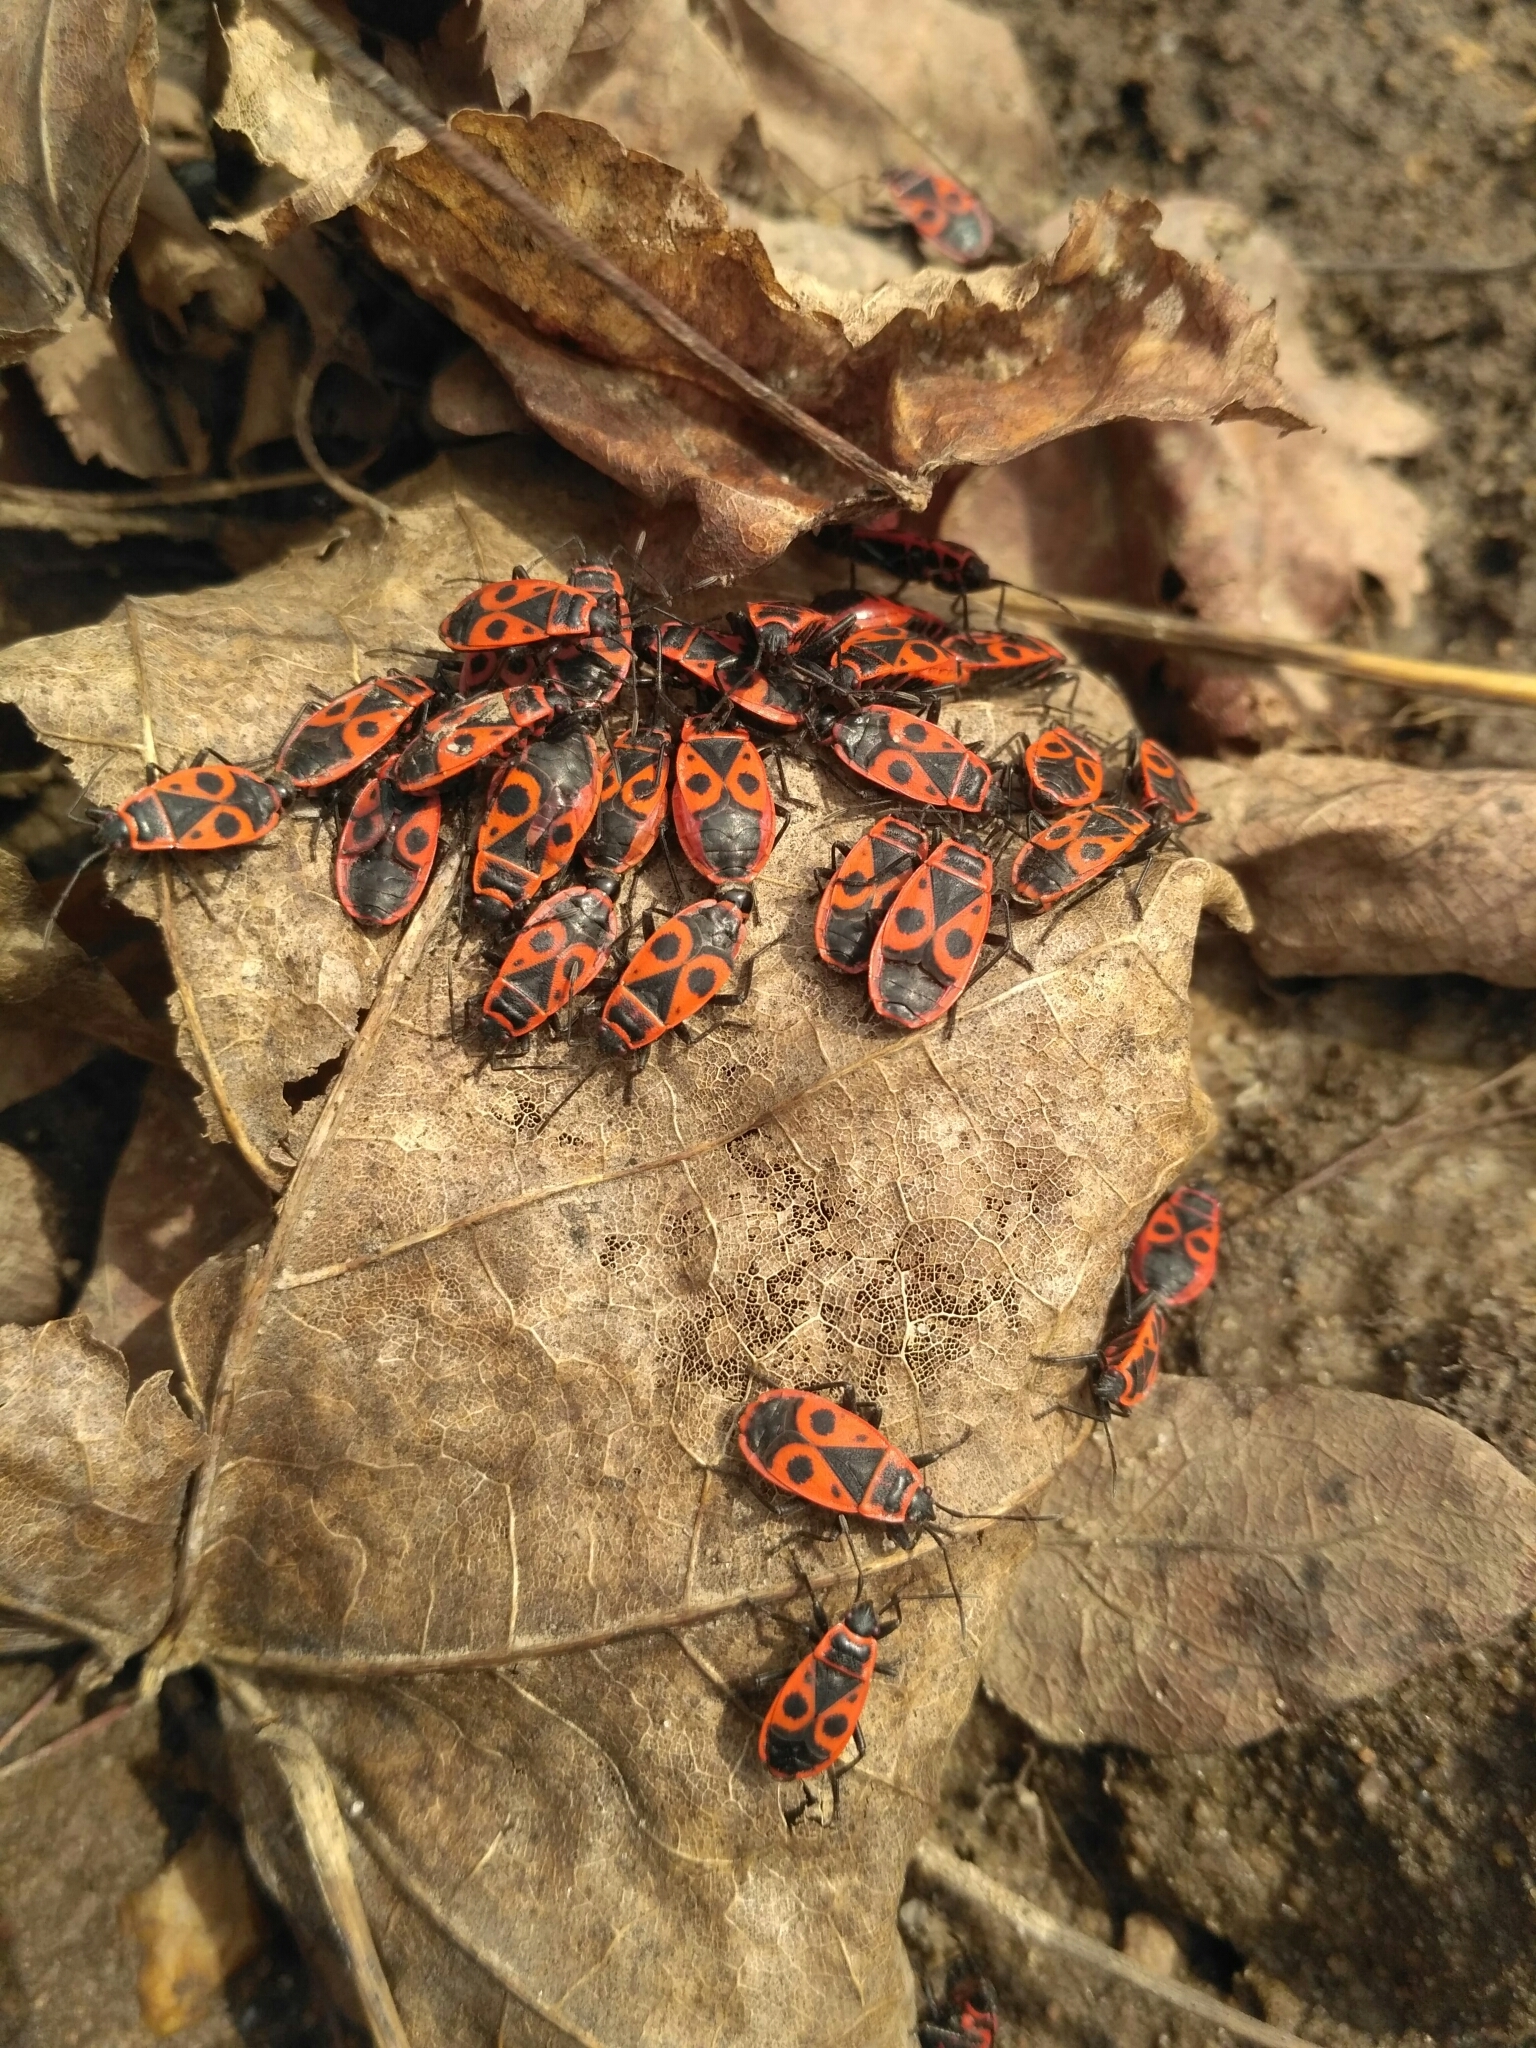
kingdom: Animalia
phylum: Arthropoda
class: Insecta
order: Hemiptera
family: Pyrrhocoridae
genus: Pyrrhocoris
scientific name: Pyrrhocoris apterus
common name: Firebug
